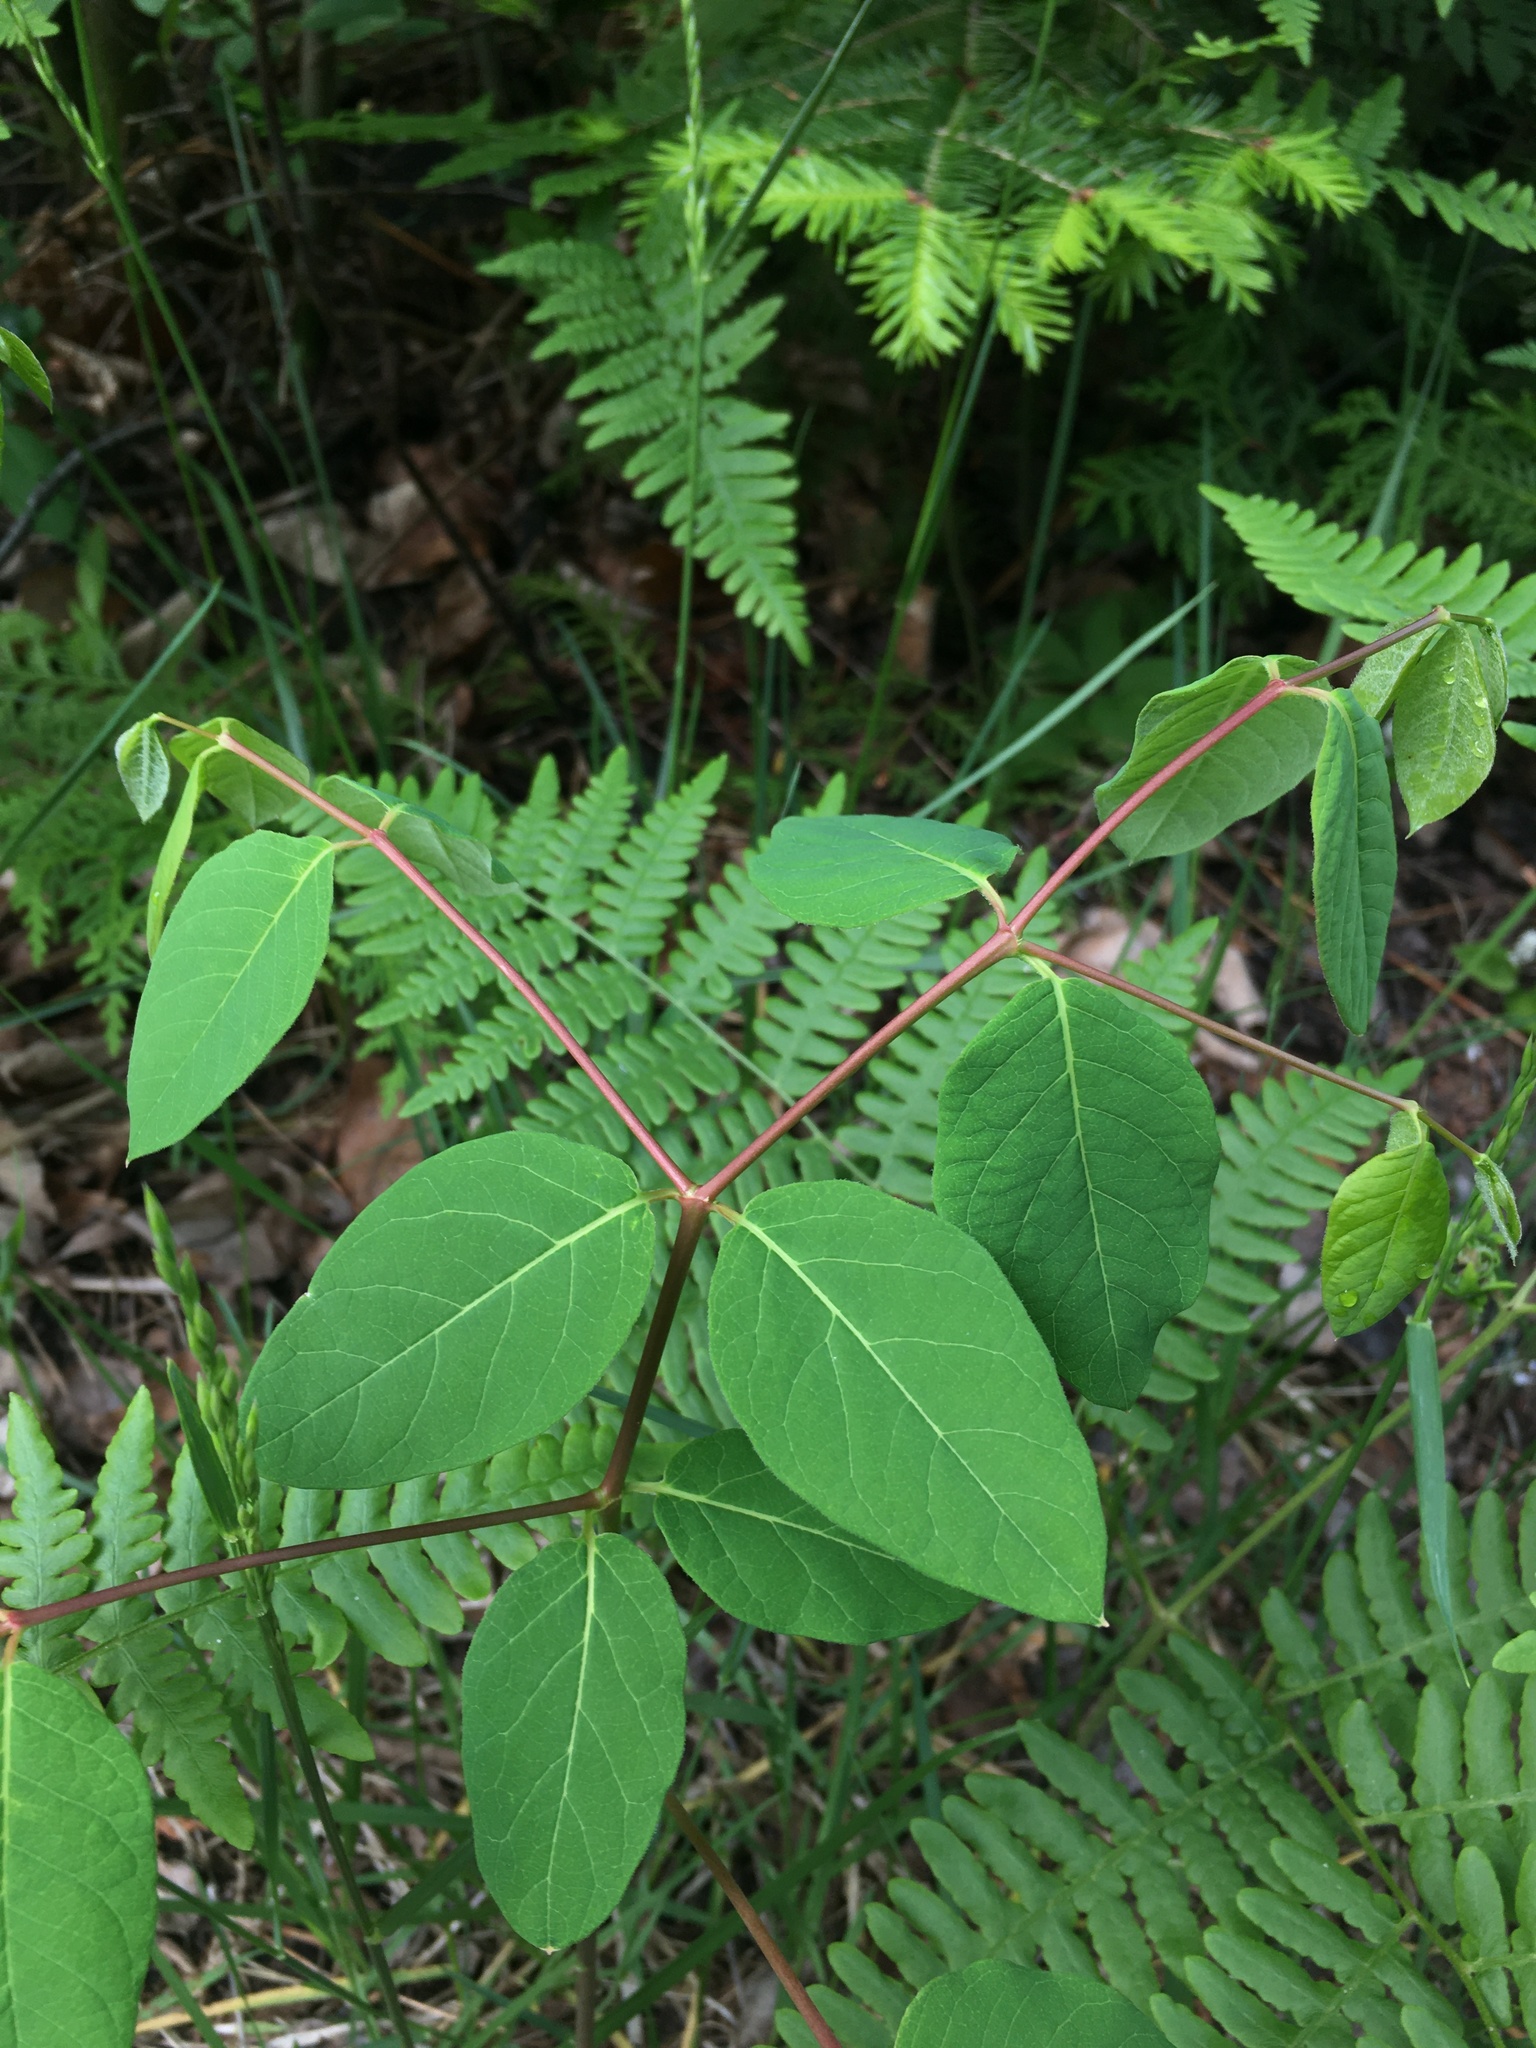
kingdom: Plantae
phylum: Tracheophyta
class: Magnoliopsida
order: Gentianales
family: Apocynaceae
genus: Apocynum
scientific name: Apocynum androsaemifolium
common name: Spreading dogbane
